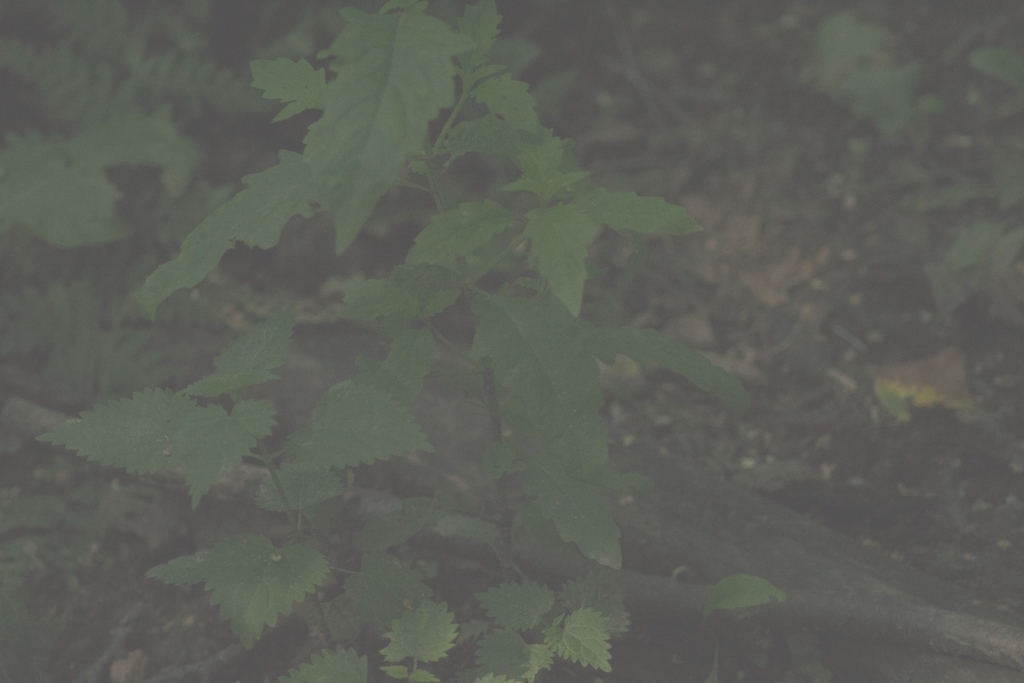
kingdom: Plantae
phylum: Tracheophyta
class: Magnoliopsida
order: Lamiales
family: Lamiaceae
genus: Lycopus
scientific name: Lycopus europaeus
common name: European bugleweed
